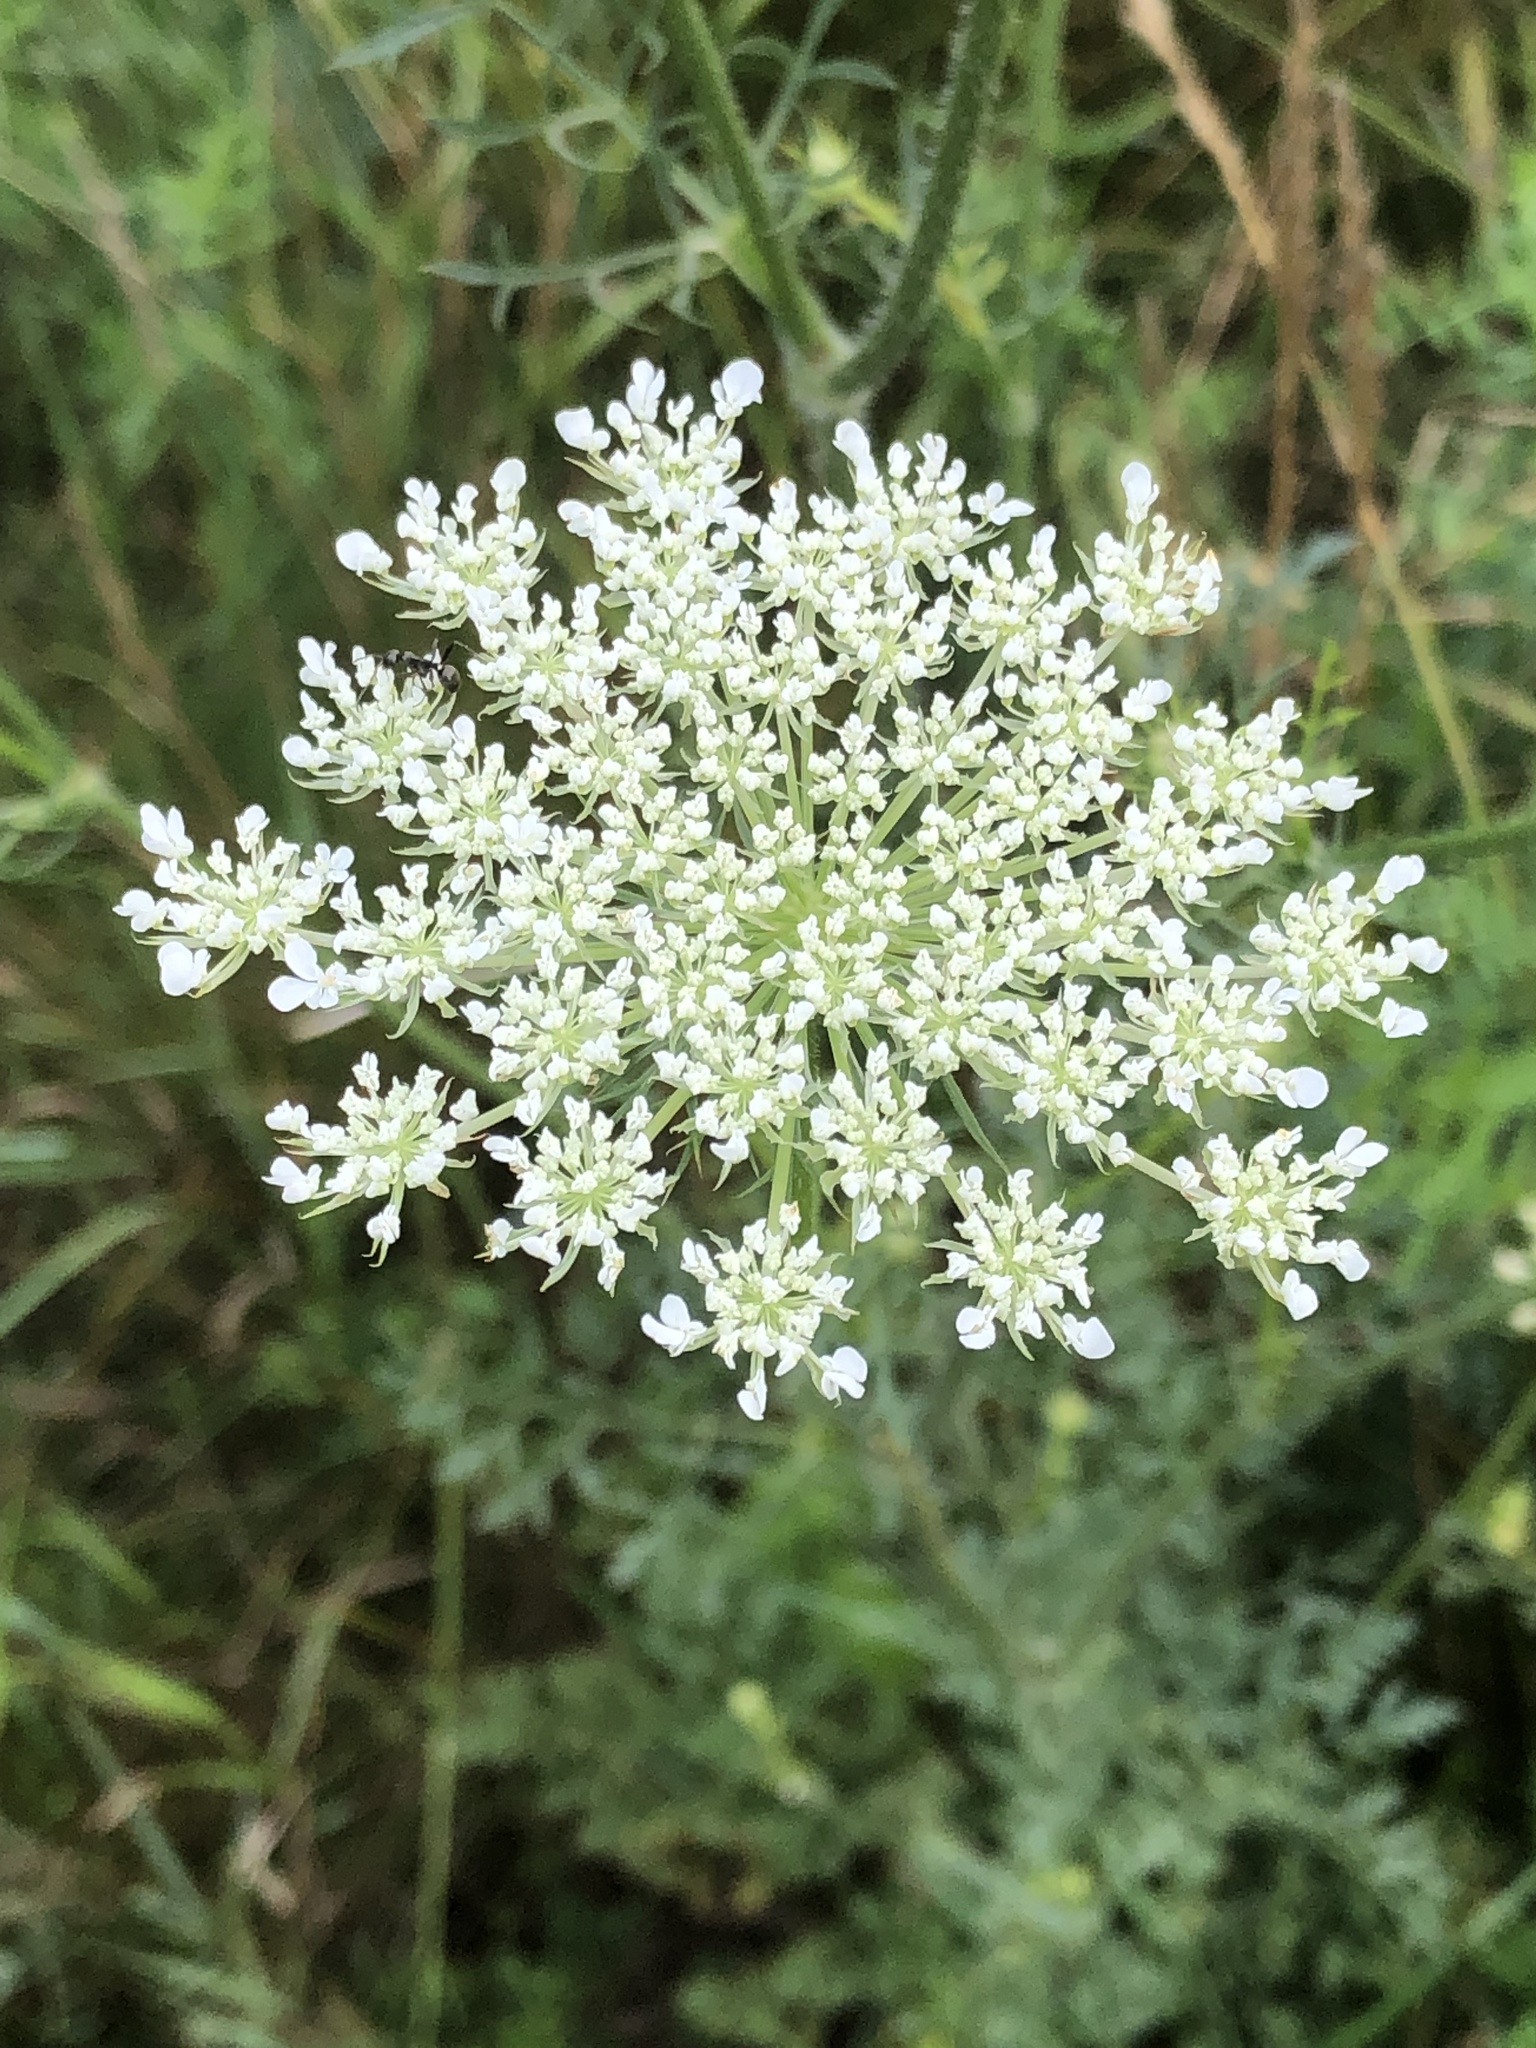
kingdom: Plantae
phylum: Tracheophyta
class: Magnoliopsida
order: Apiales
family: Apiaceae
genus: Daucus
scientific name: Daucus carota
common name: Wild carrot
